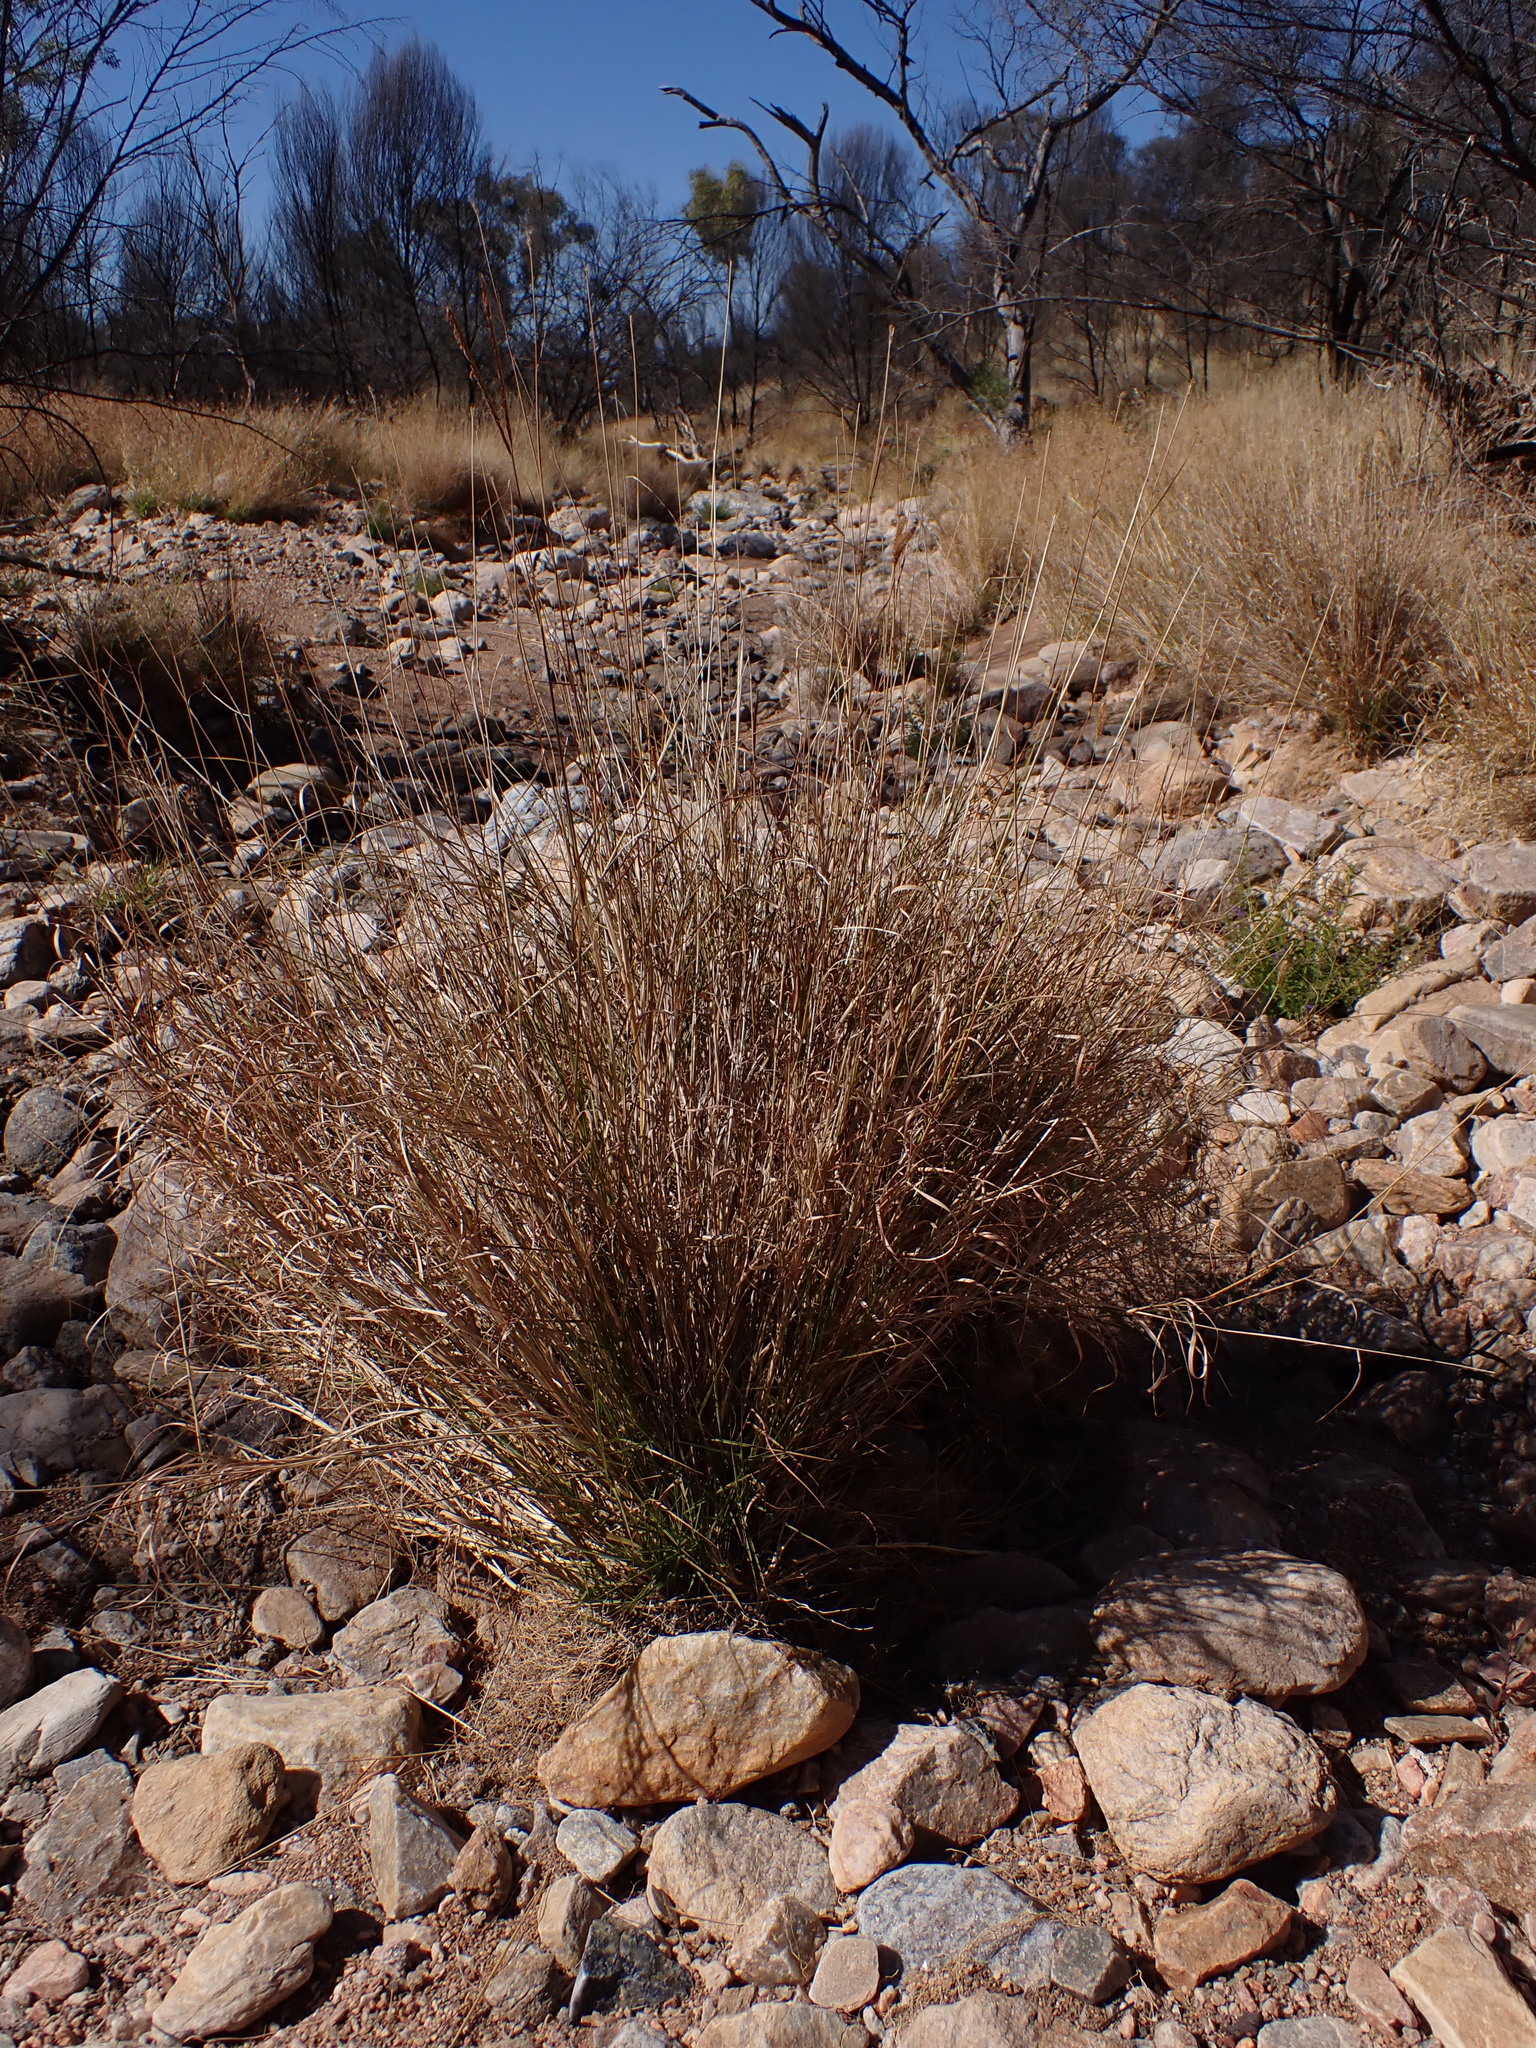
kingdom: Plantae
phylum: Tracheophyta
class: Liliopsida
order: Poales
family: Poaceae
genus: Cenchrus
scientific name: Cenchrus ciliaris
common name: Buffelgrass
